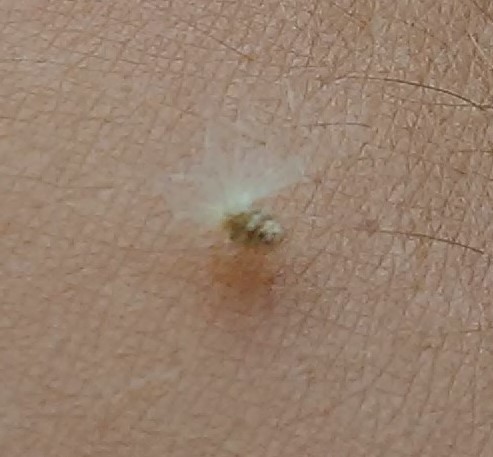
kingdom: Animalia
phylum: Arthropoda
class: Insecta
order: Hemiptera
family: Ricaniidae
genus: Orosanga
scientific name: Orosanga
